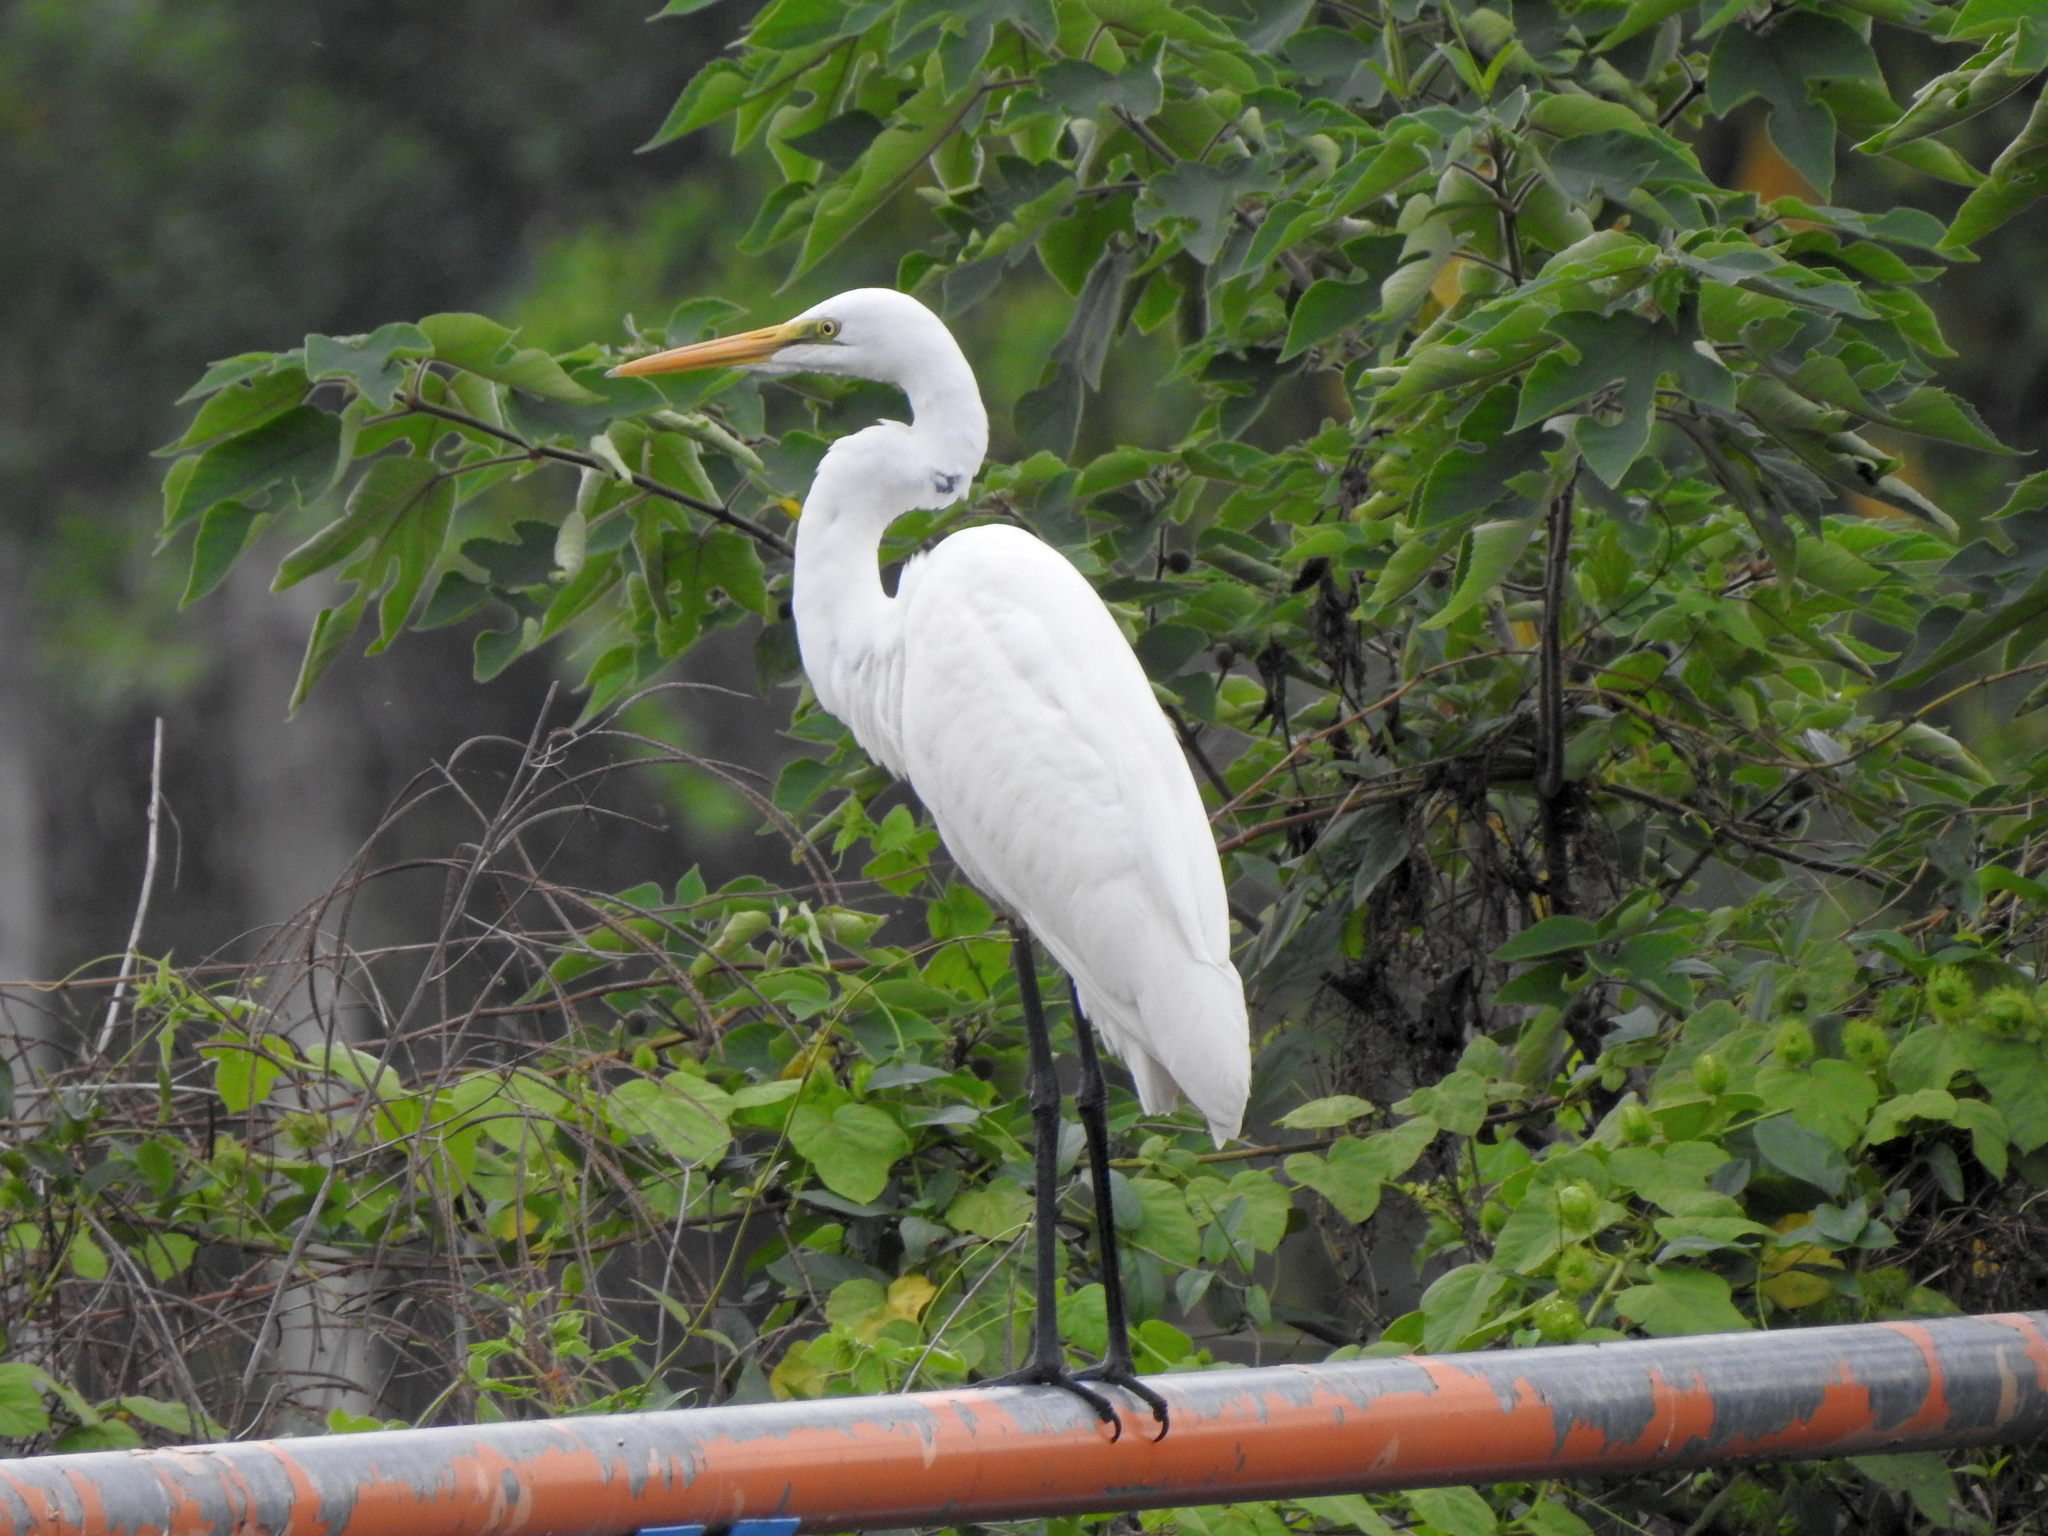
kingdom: Animalia
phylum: Chordata
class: Aves
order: Pelecaniformes
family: Ardeidae
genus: Ardea
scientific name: Ardea alba
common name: Great egret
